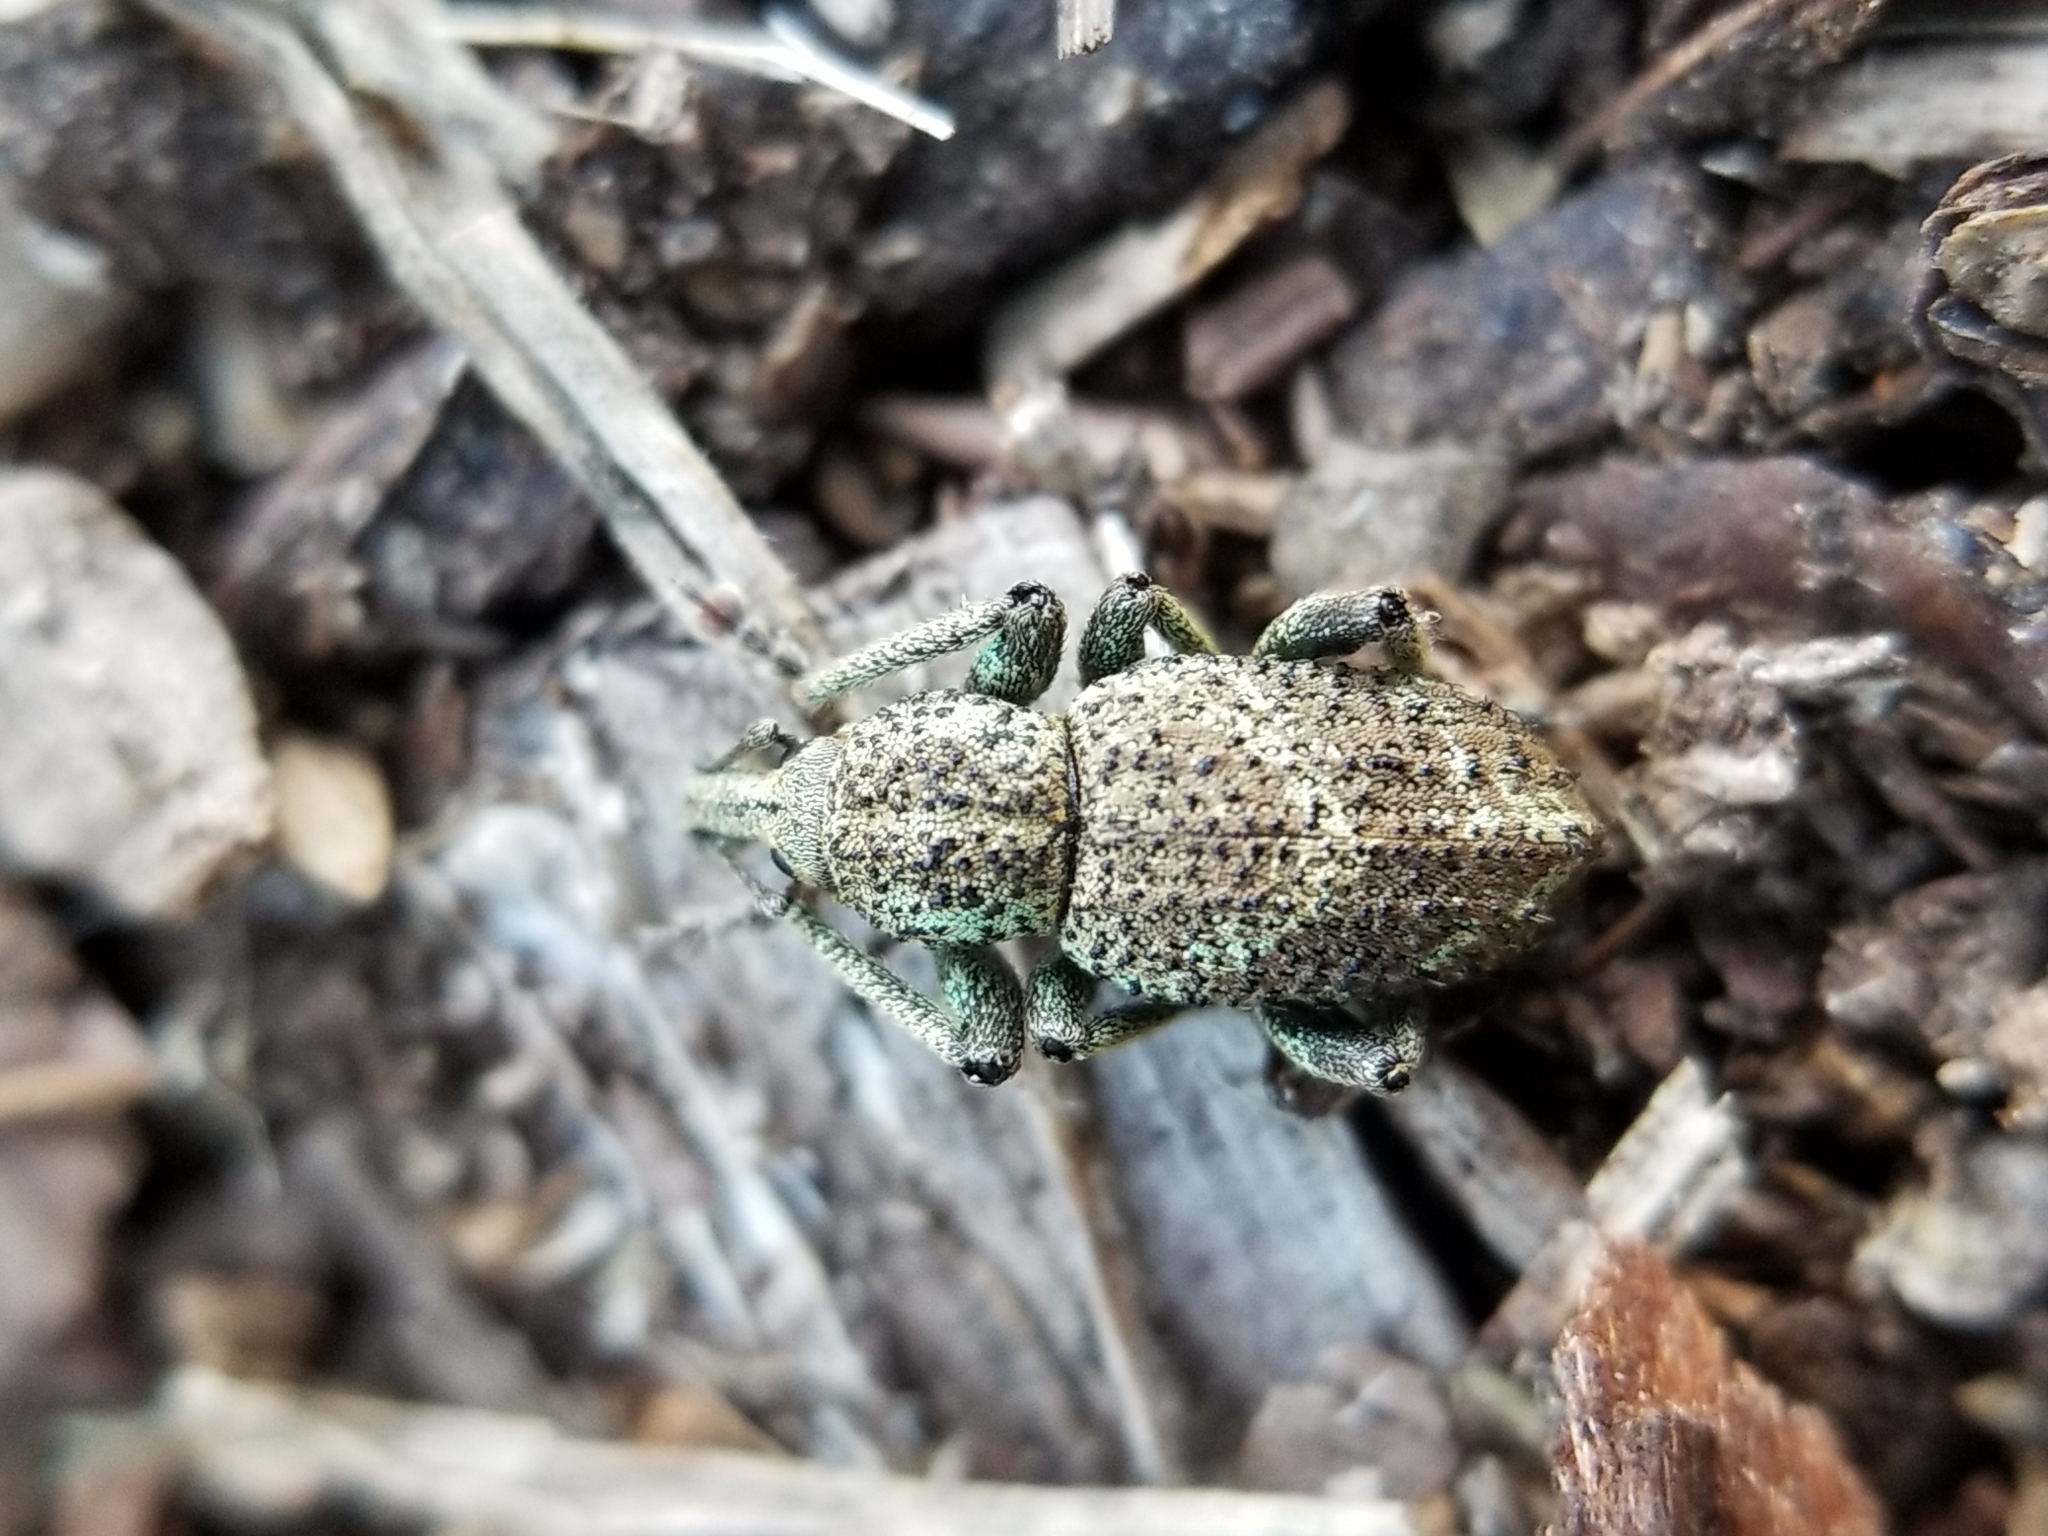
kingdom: Animalia
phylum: Arthropoda
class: Insecta
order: Coleoptera
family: Curculionidae
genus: Panscopus
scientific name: Panscopus gemmatus
